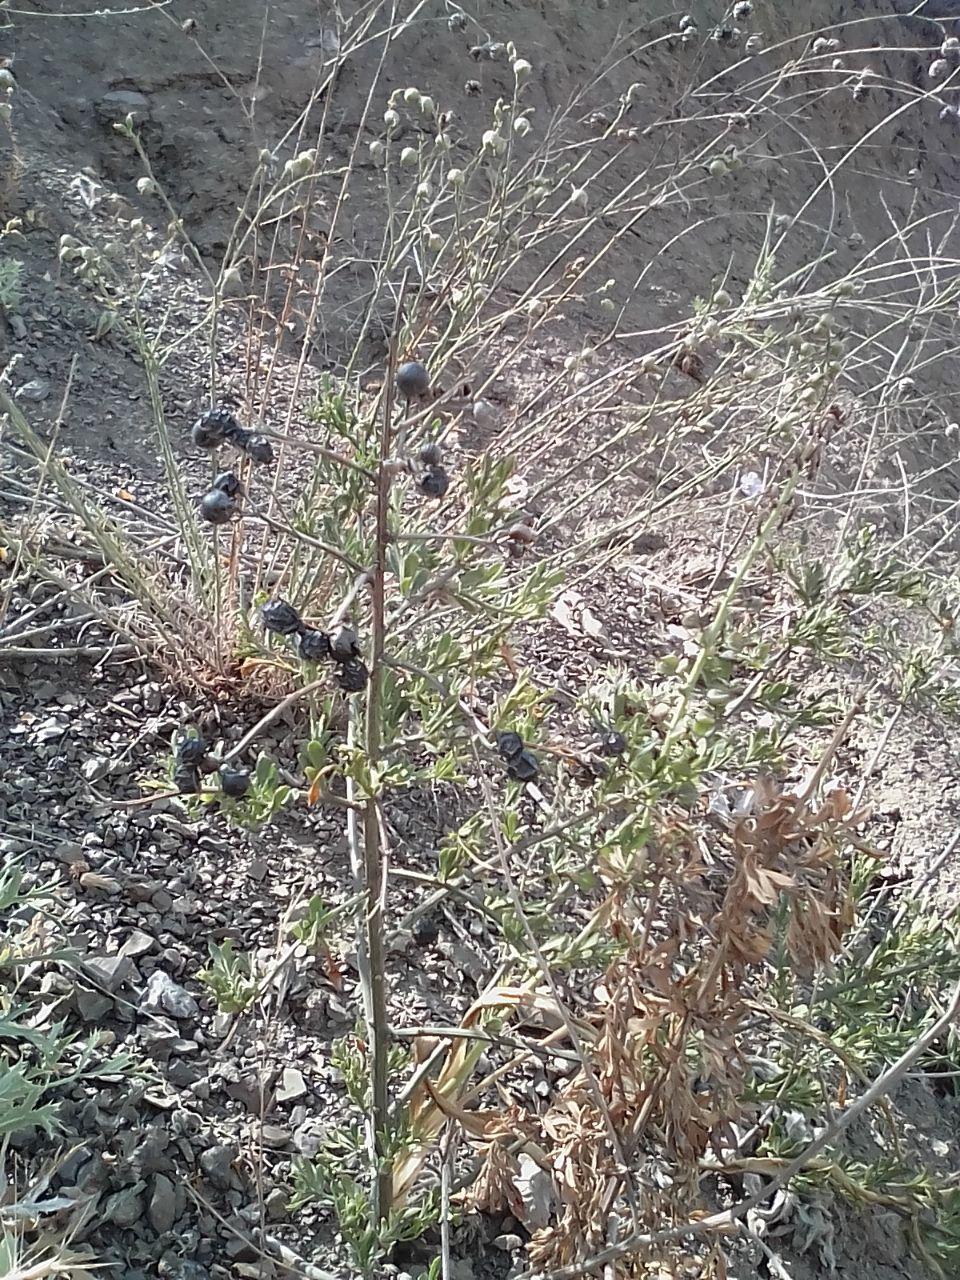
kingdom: Plantae
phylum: Tracheophyta
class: Magnoliopsida
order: Sapindales
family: Nitrariaceae
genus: Nitraria
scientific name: Nitraria schoberi
